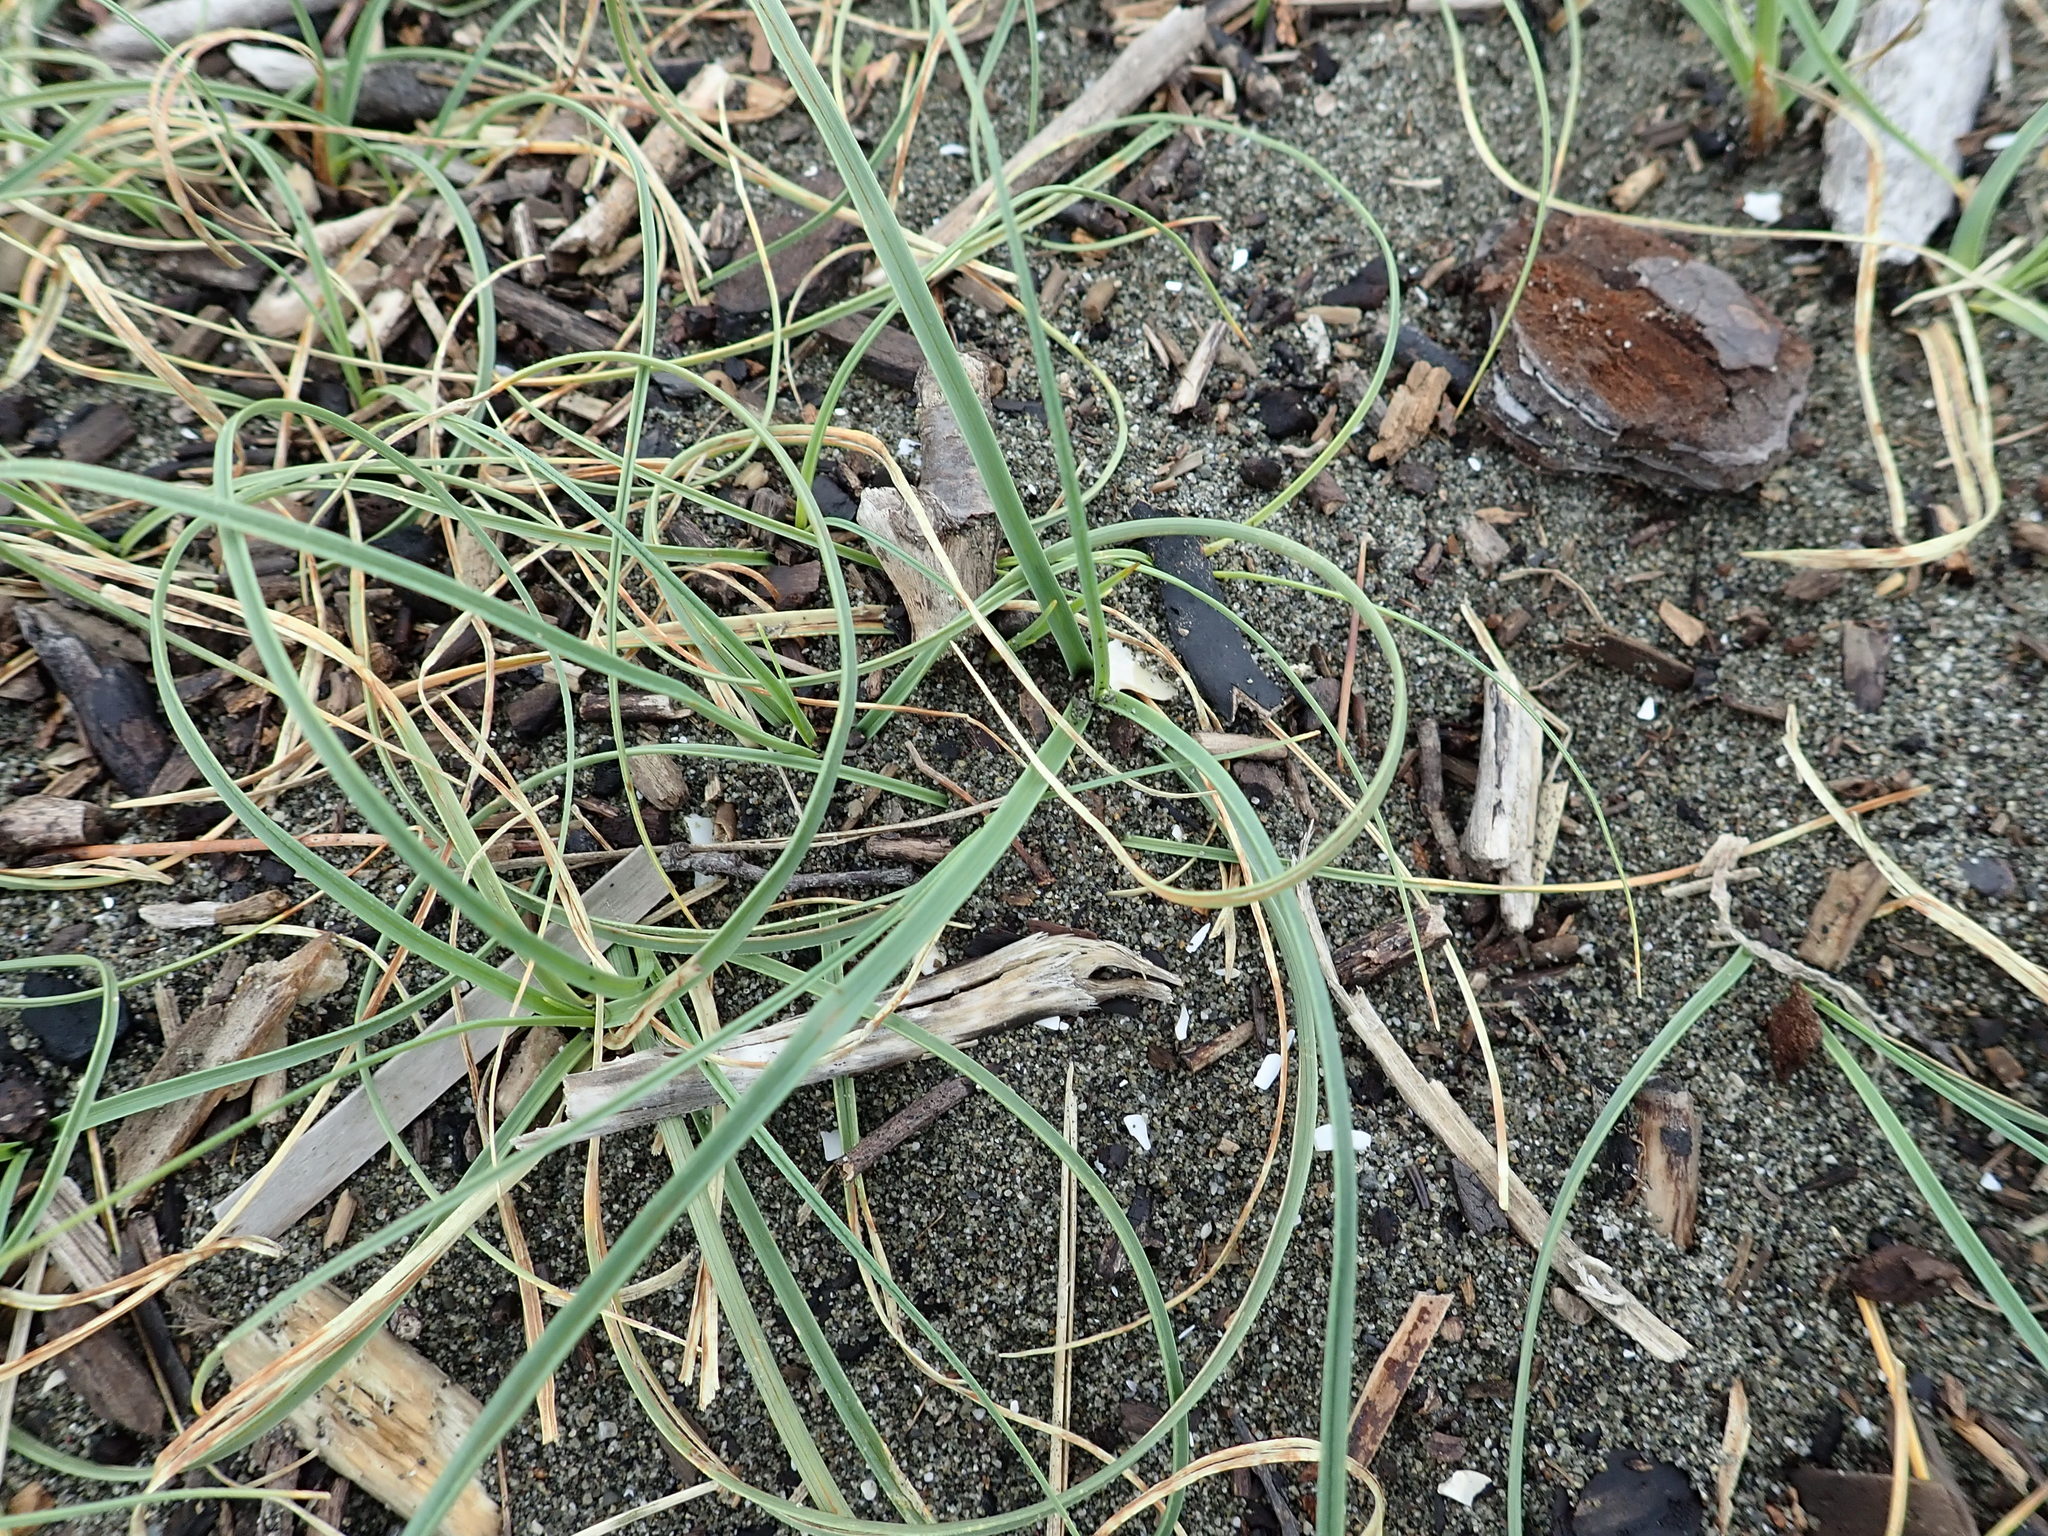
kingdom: Plantae
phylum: Tracheophyta
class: Liliopsida
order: Poales
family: Cyperaceae
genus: Carex
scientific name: Carex pumila
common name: Dwarf sedge
